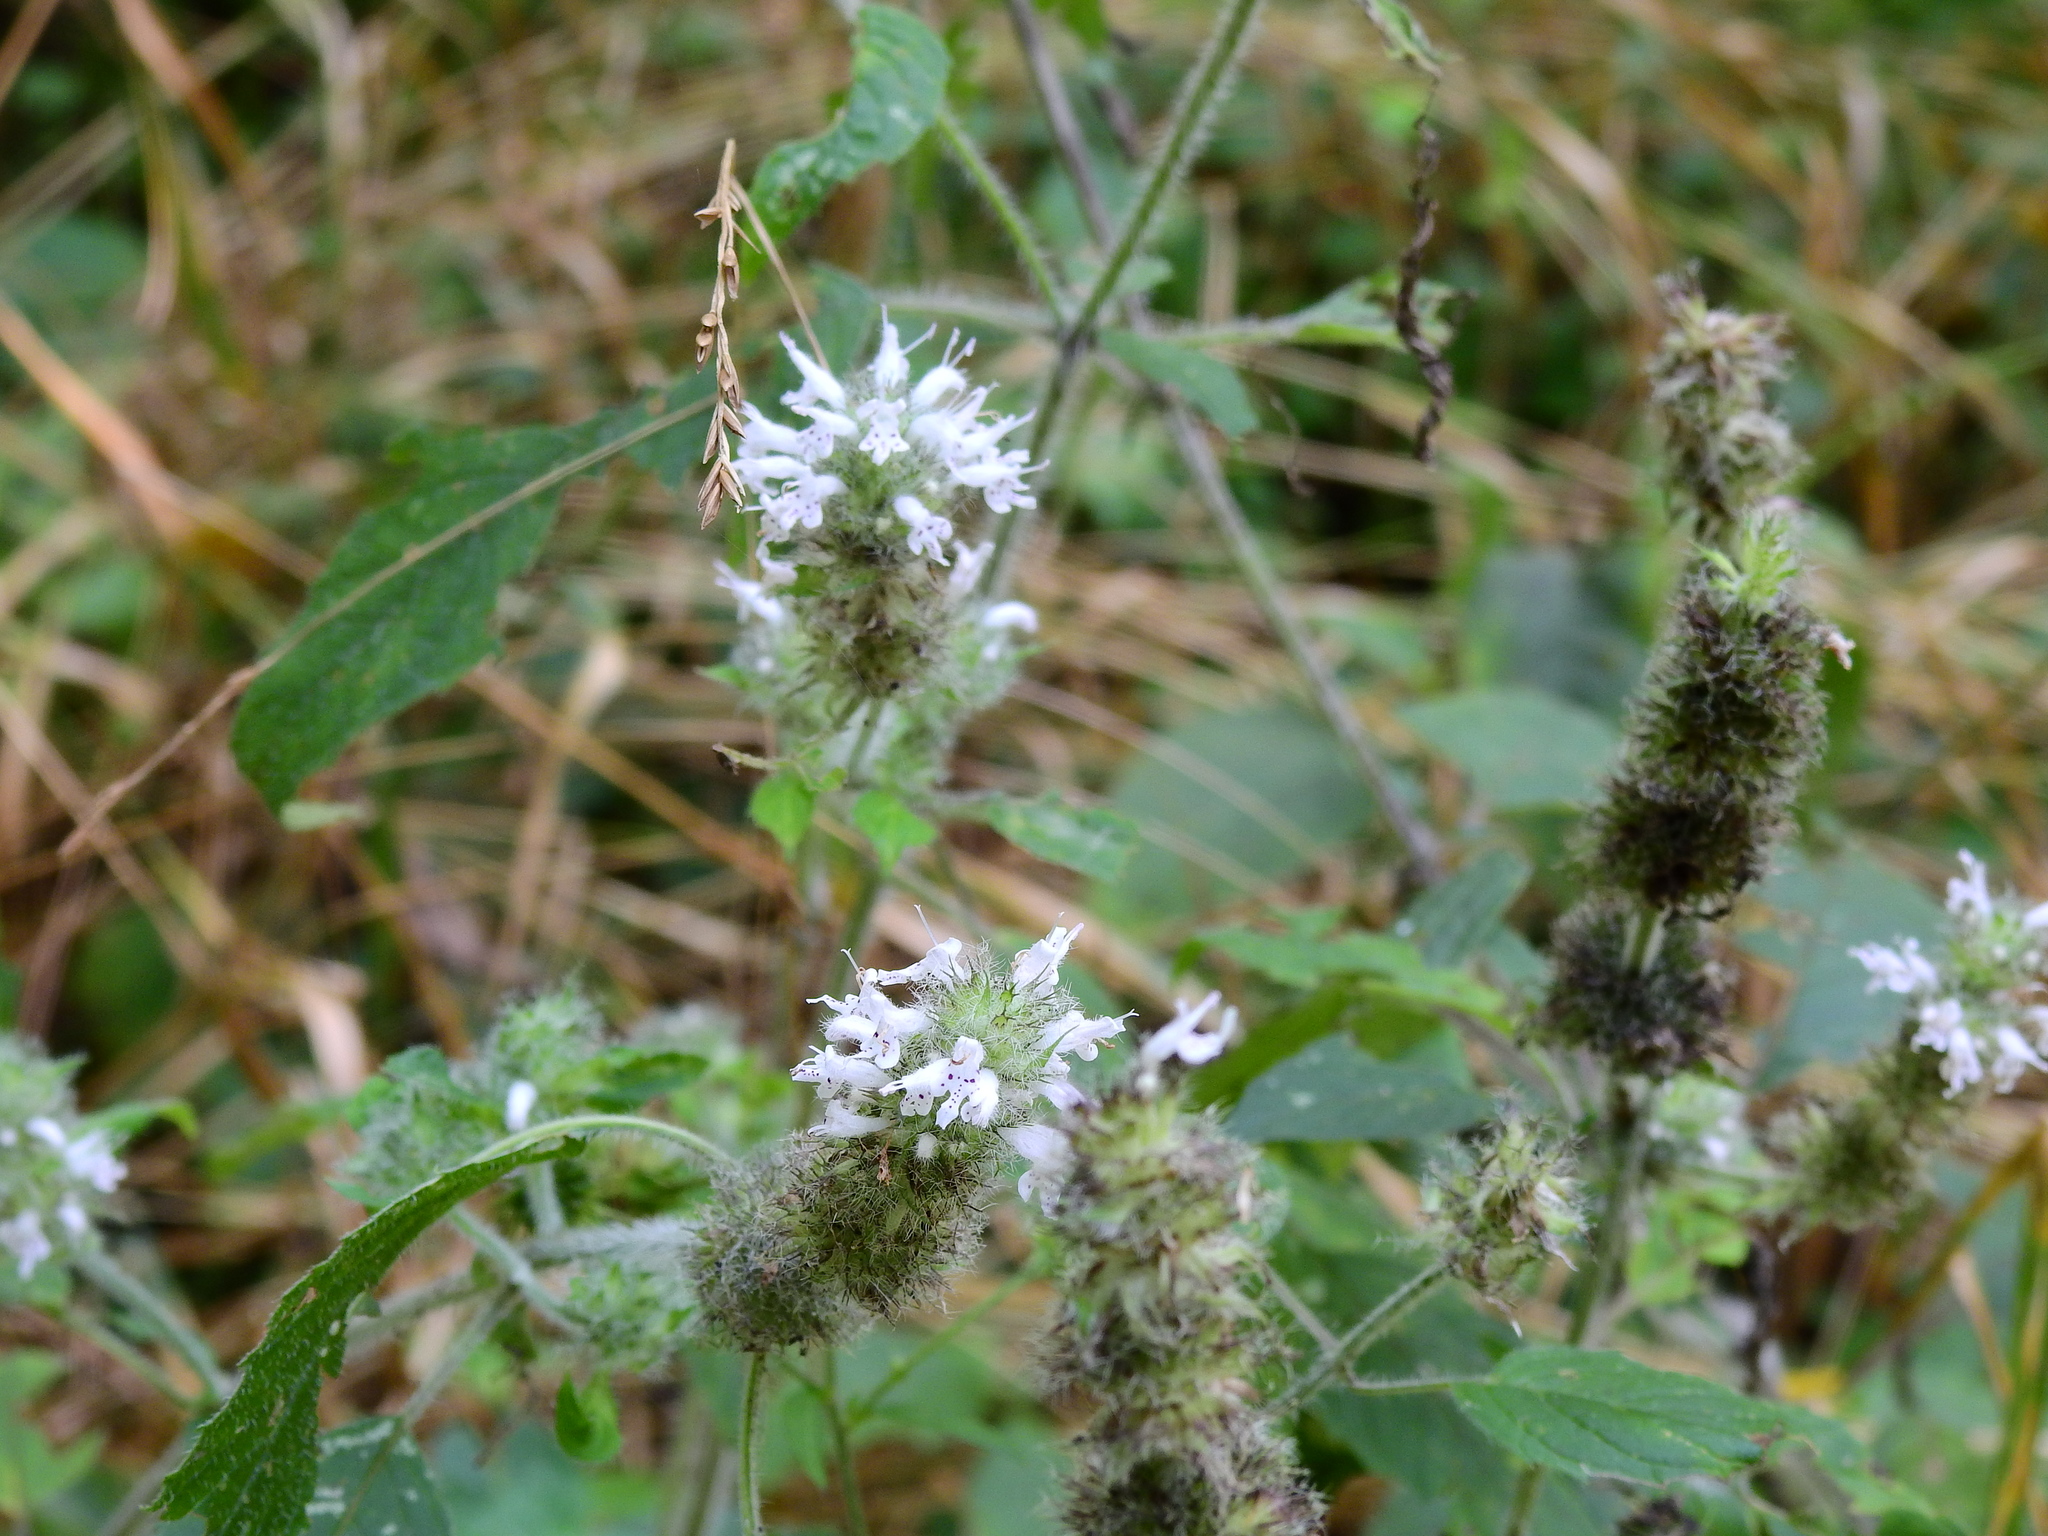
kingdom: Plantae
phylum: Tracheophyta
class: Magnoliopsida
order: Lamiales
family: Lamiaceae
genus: Blephilia
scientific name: Blephilia hirsuta
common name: Hairy blephilia
